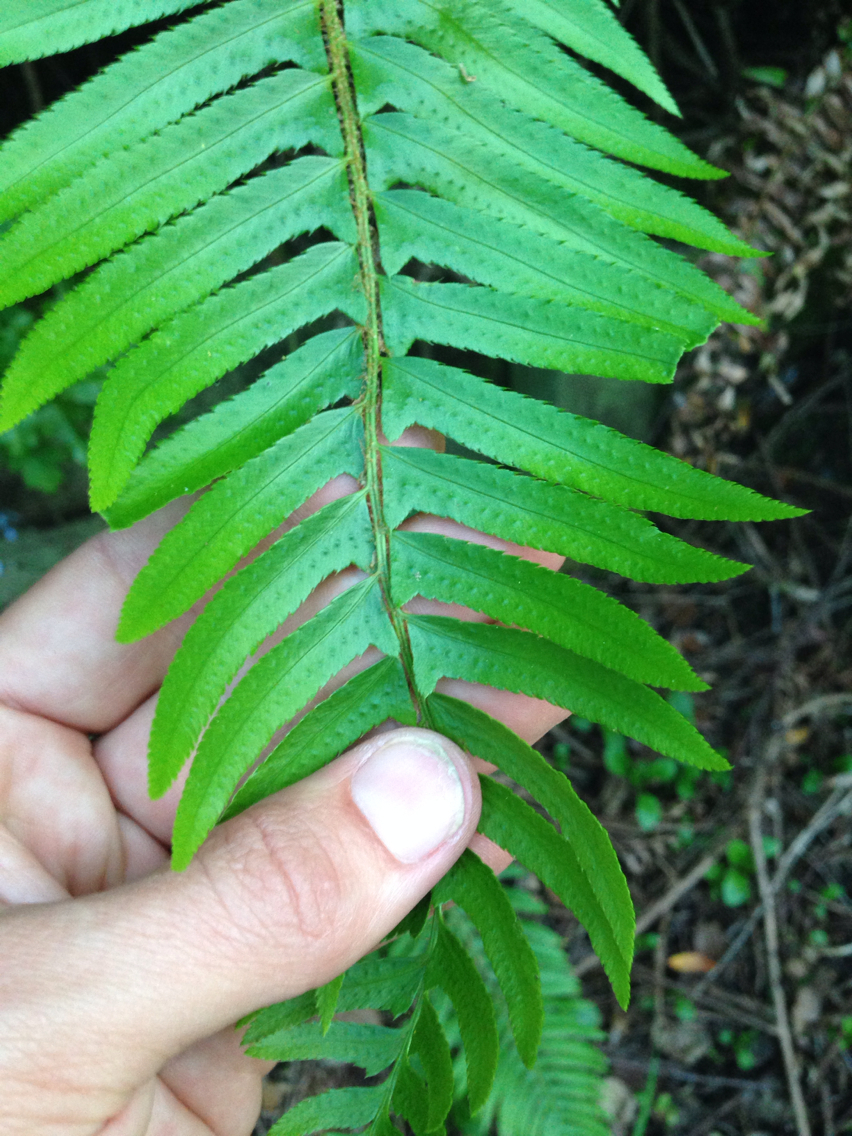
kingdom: Plantae
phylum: Tracheophyta
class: Polypodiopsida
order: Polypodiales
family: Dryopteridaceae
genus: Polystichum
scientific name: Polystichum munitum
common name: Western sword-fern
